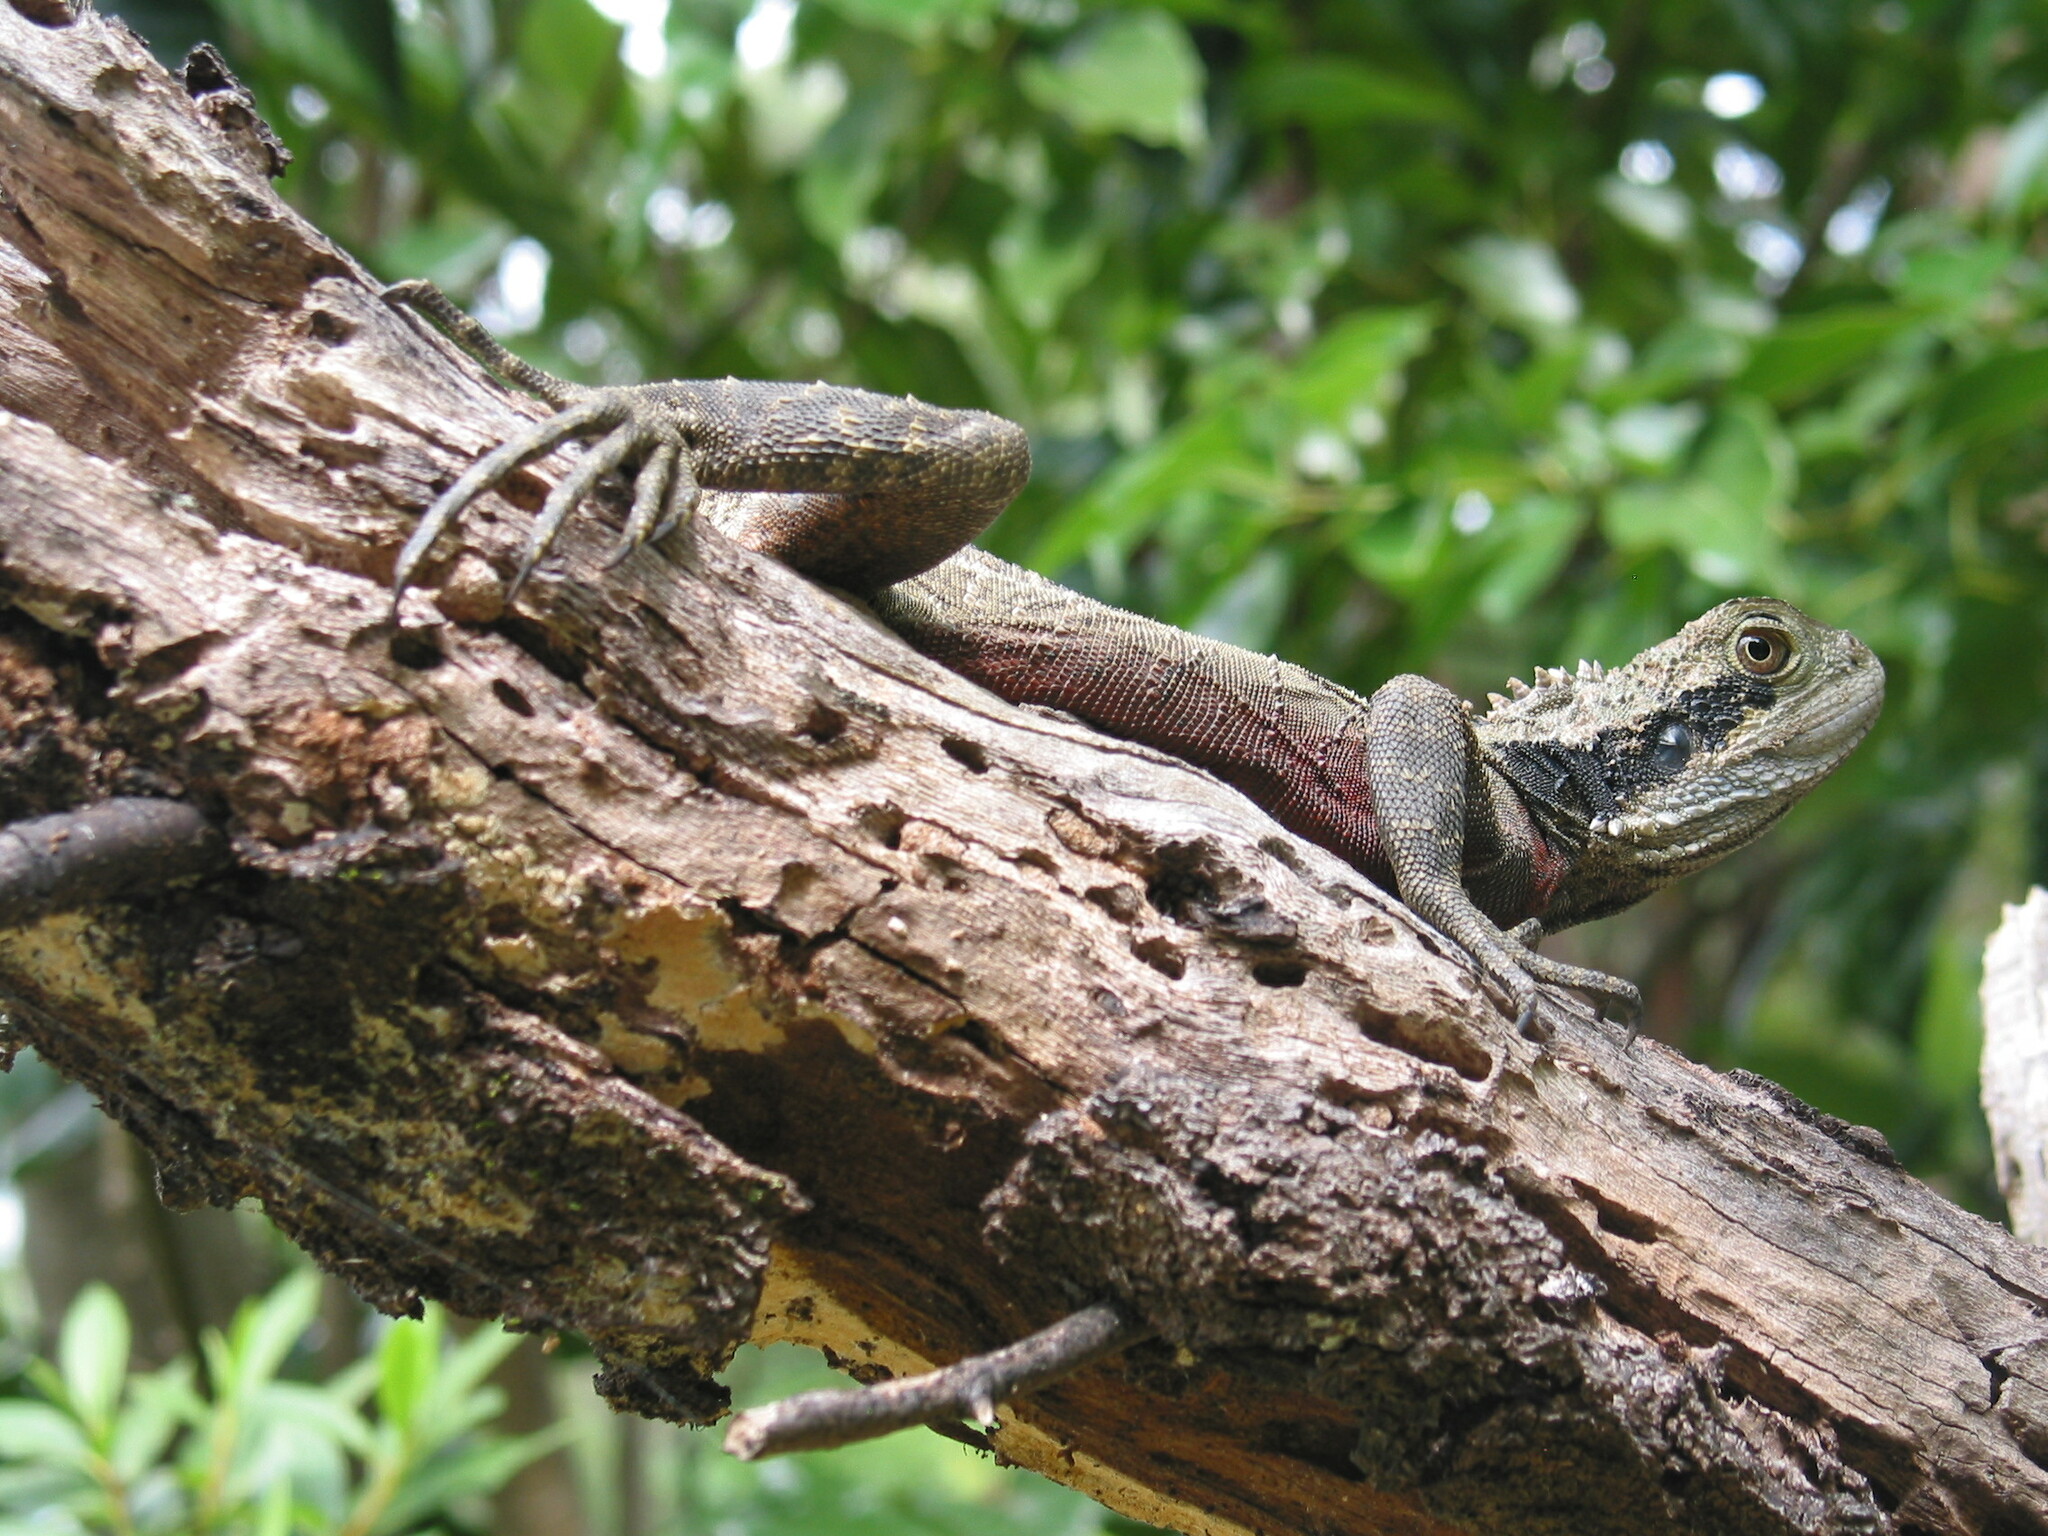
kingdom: Animalia
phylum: Chordata
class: Squamata
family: Agamidae
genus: Intellagama
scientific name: Intellagama lesueurii
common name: Eastern water dragon
